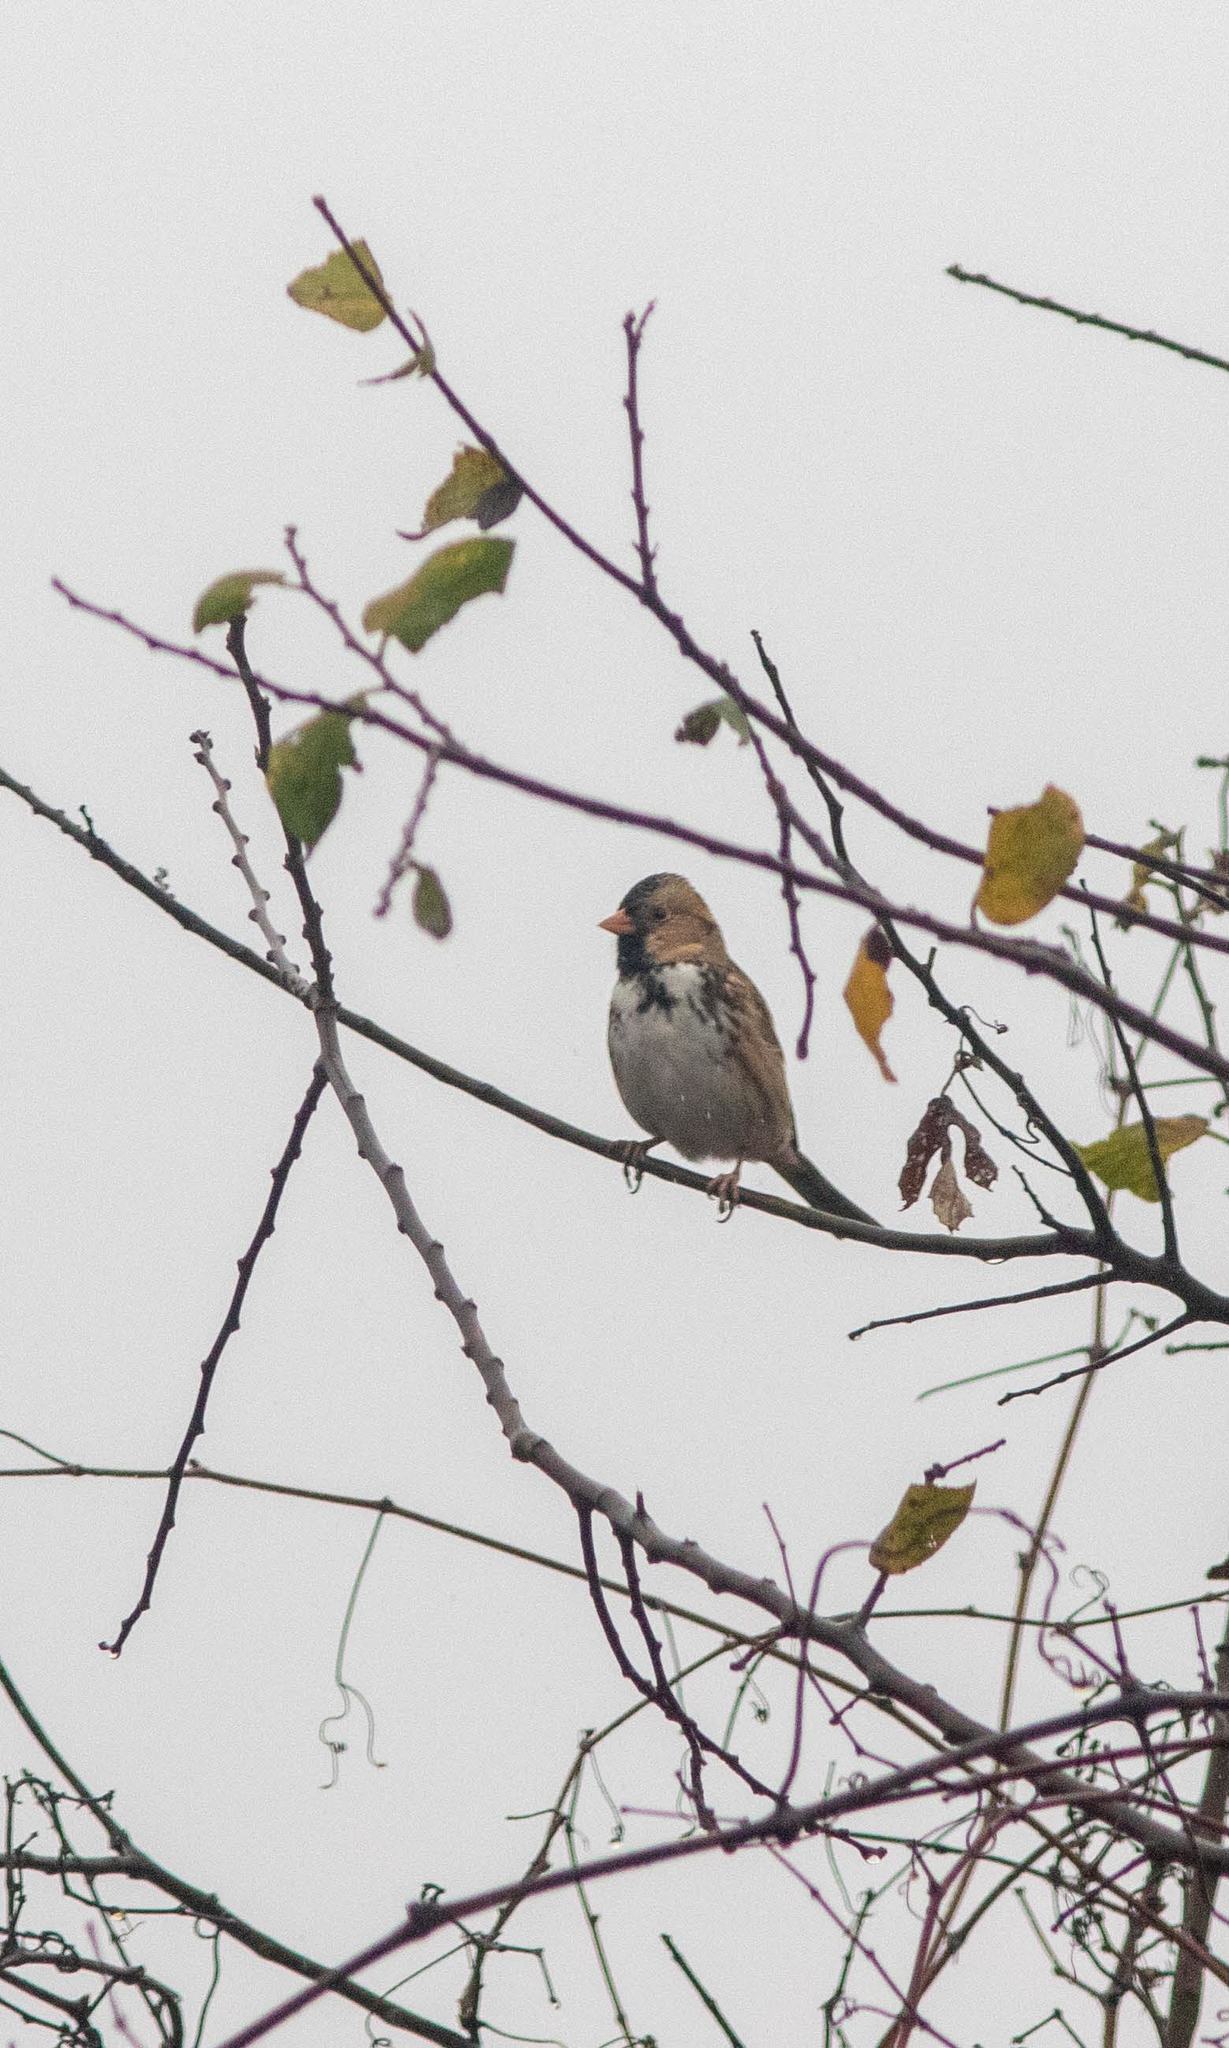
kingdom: Animalia
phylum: Chordata
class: Aves
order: Passeriformes
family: Passerellidae
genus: Zonotrichia
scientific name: Zonotrichia querula
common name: Harris's sparrow
